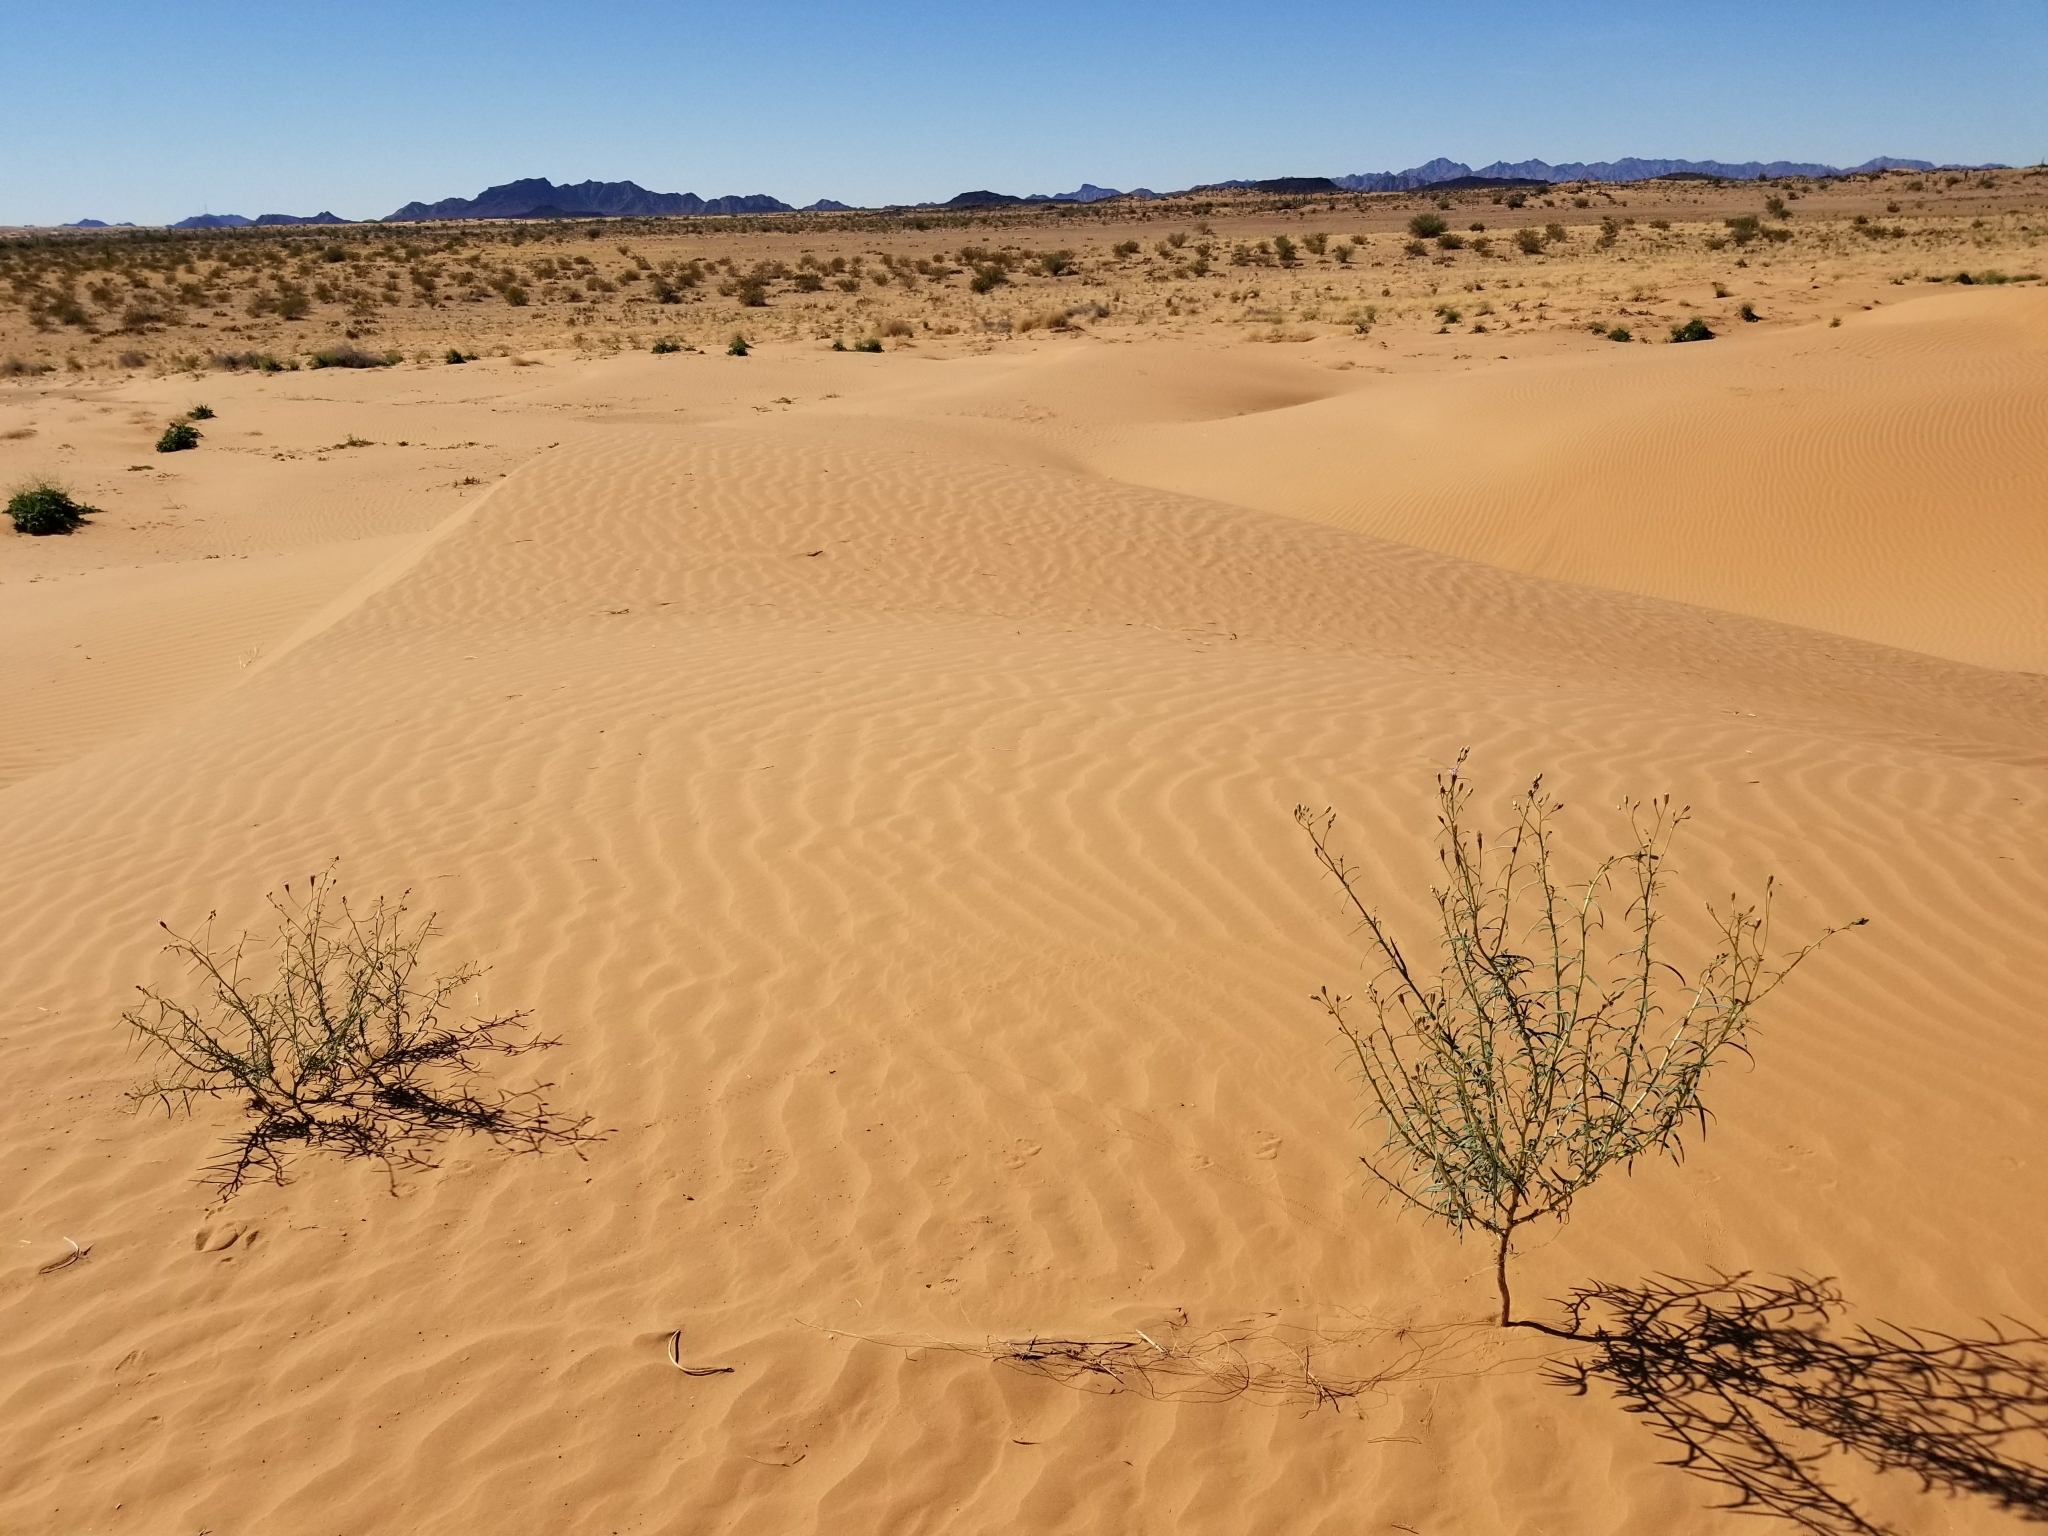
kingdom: Plantae
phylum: Tracheophyta
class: Magnoliopsida
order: Asterales
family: Asteraceae
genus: Palafoxia
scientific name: Palafoxia arida
